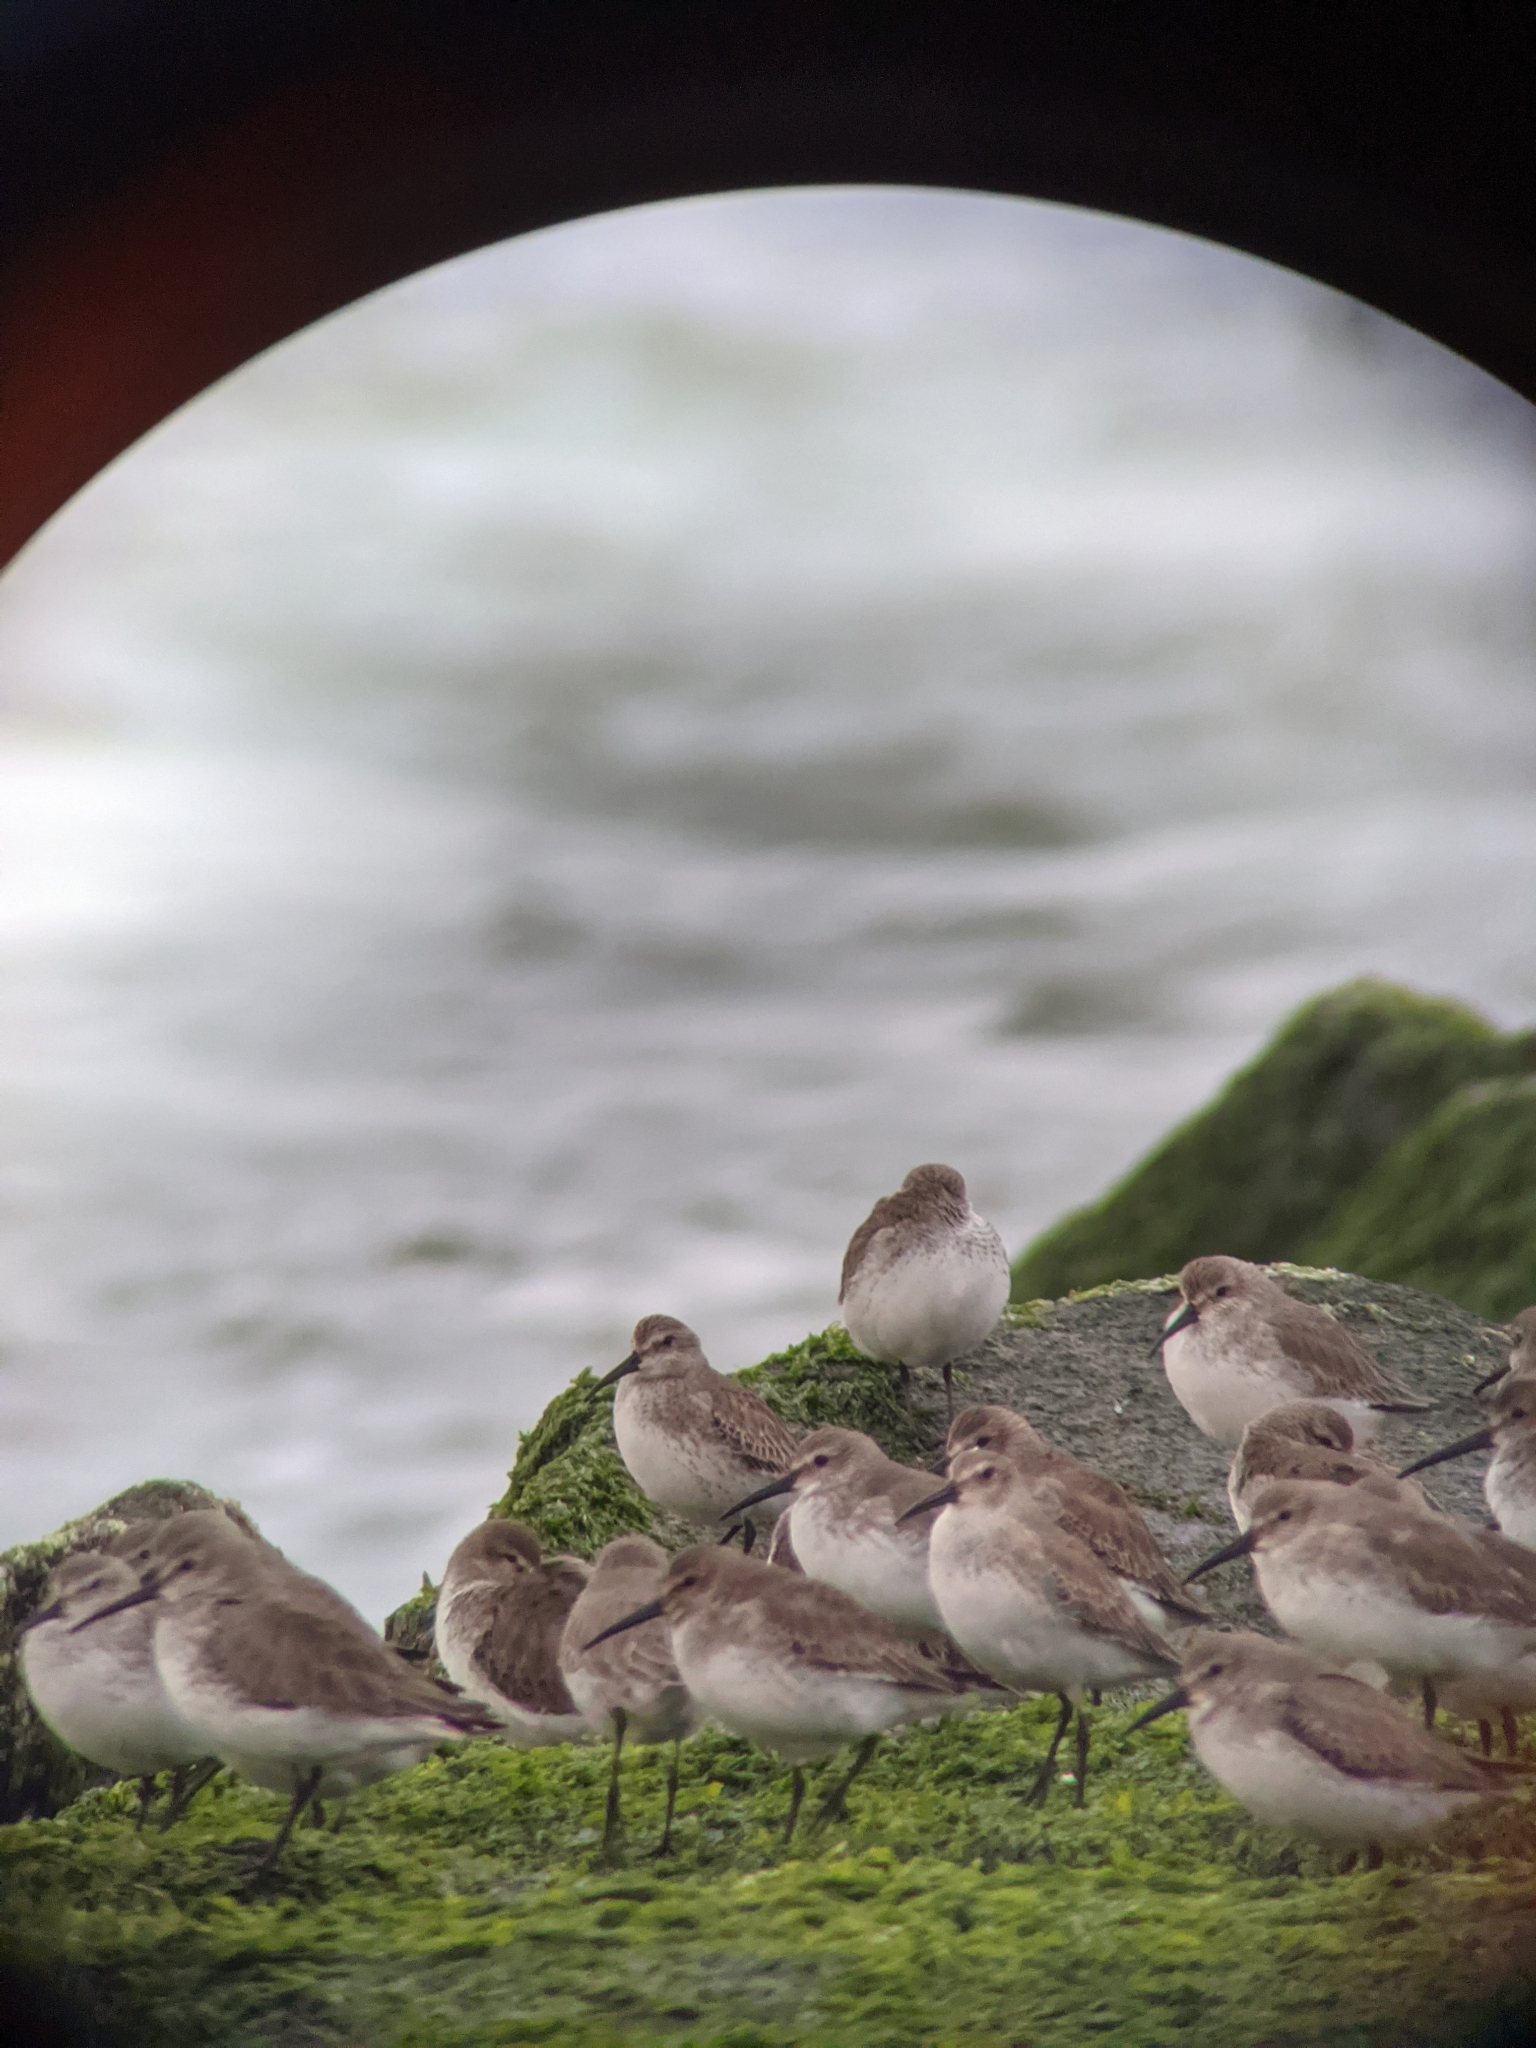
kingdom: Animalia
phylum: Chordata
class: Aves
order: Charadriiformes
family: Scolopacidae
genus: Calidris
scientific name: Calidris alpina
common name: Dunlin
